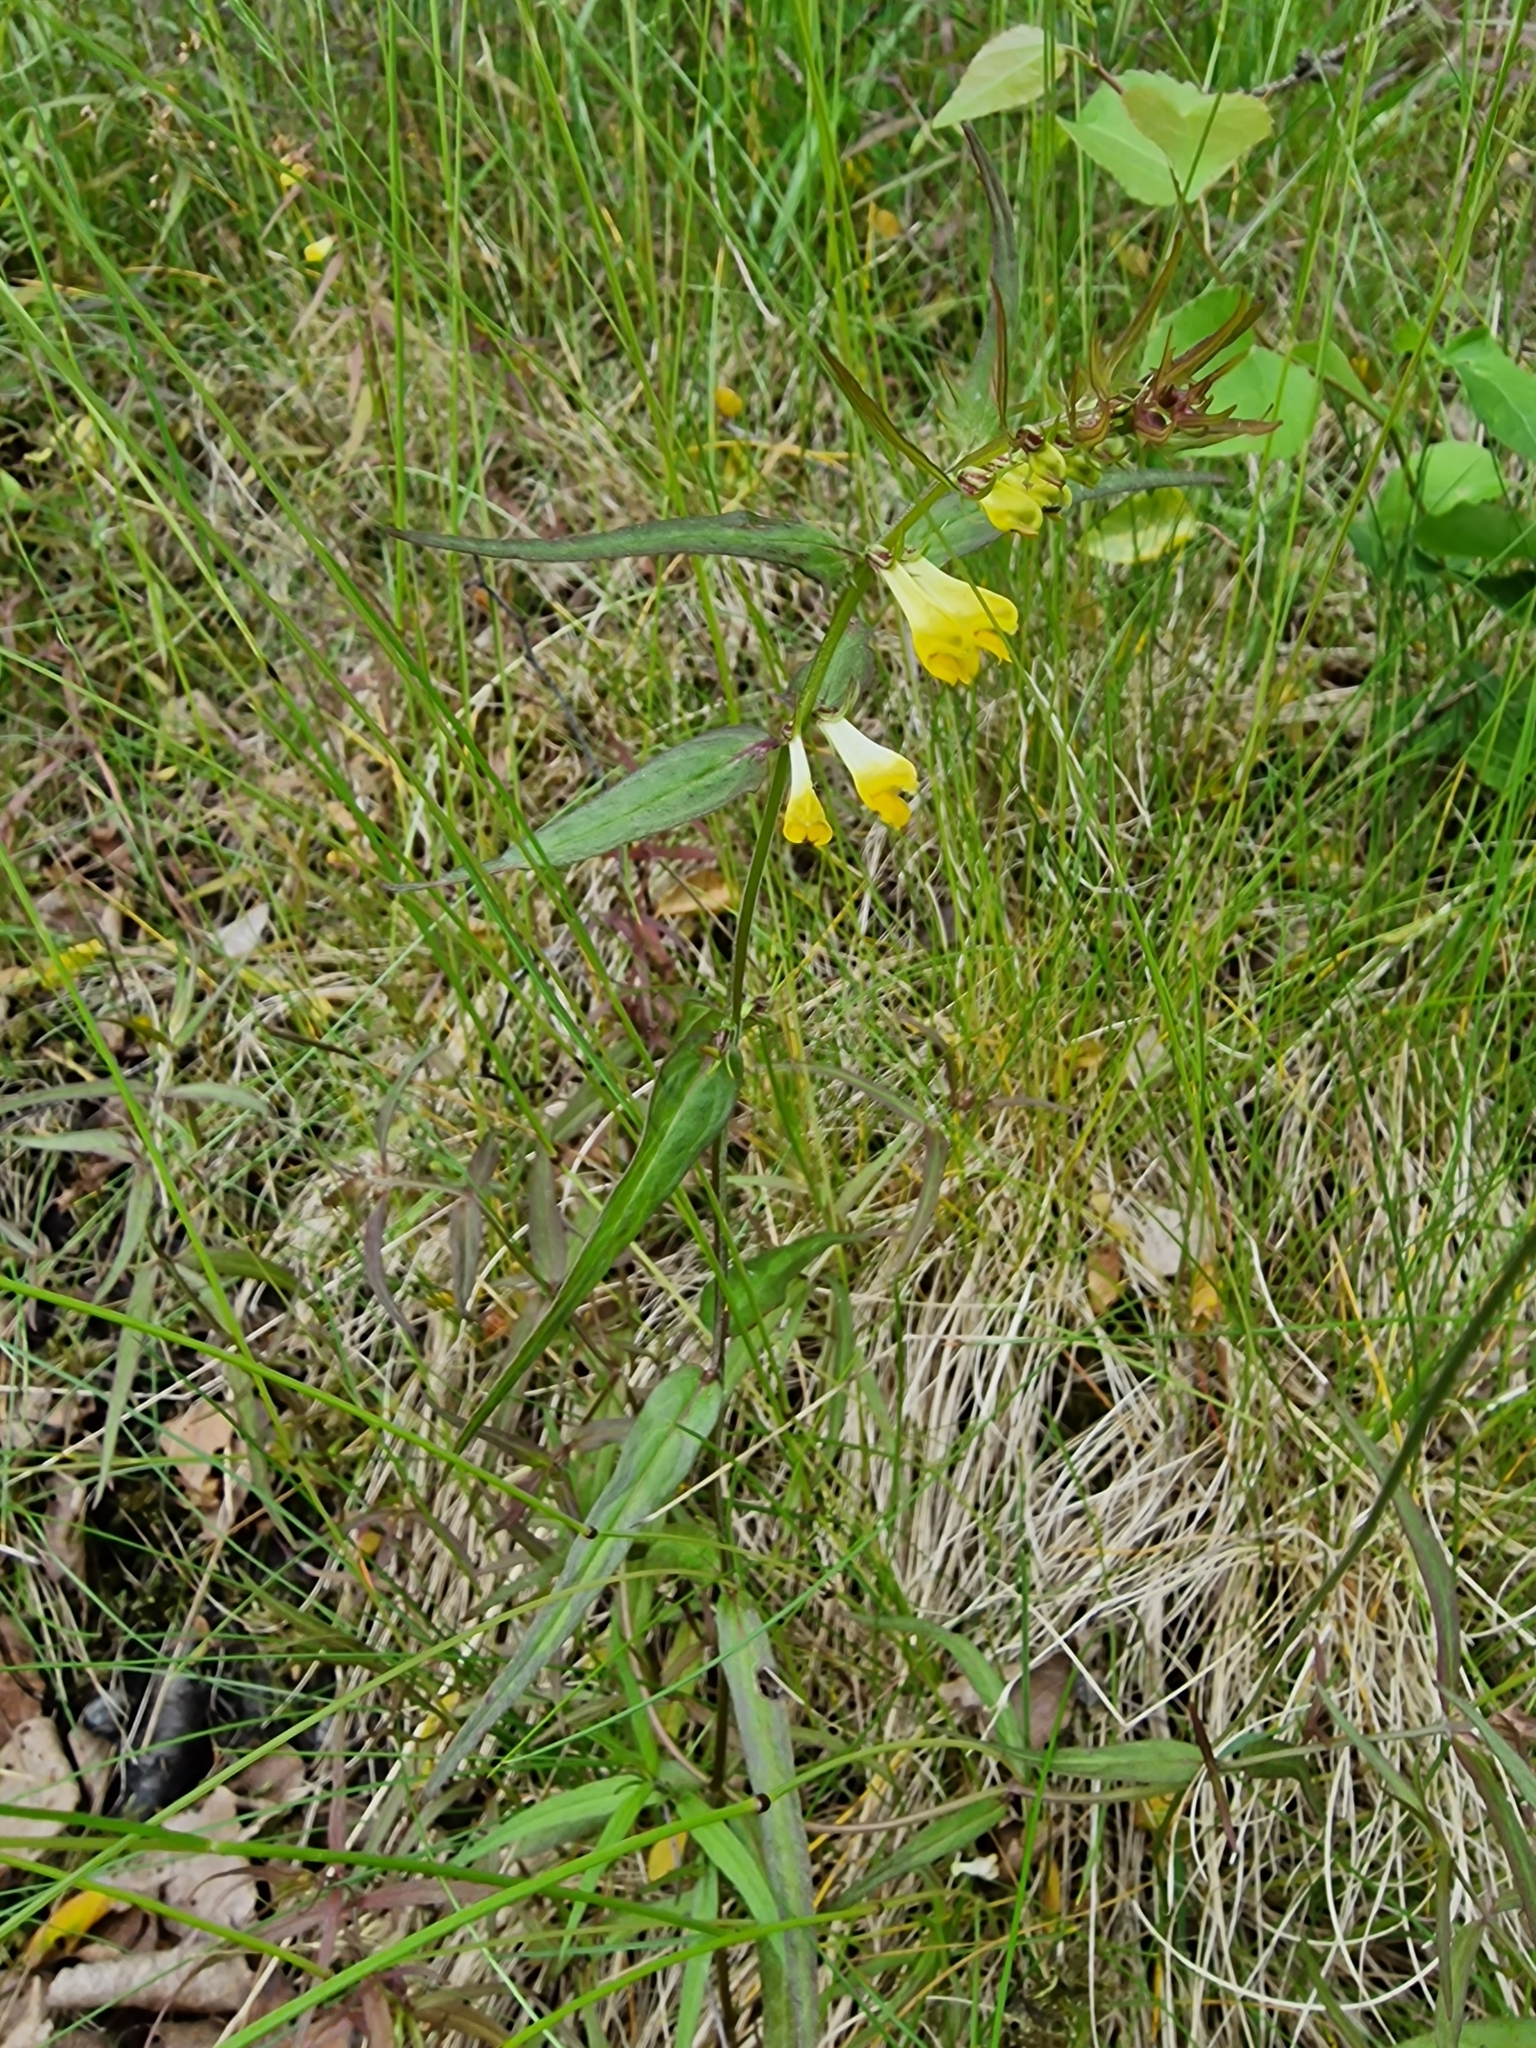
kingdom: Plantae
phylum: Tracheophyta
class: Magnoliopsida
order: Lamiales
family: Orobanchaceae
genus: Melampyrum
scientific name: Melampyrum pratense
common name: Common cow-wheat
